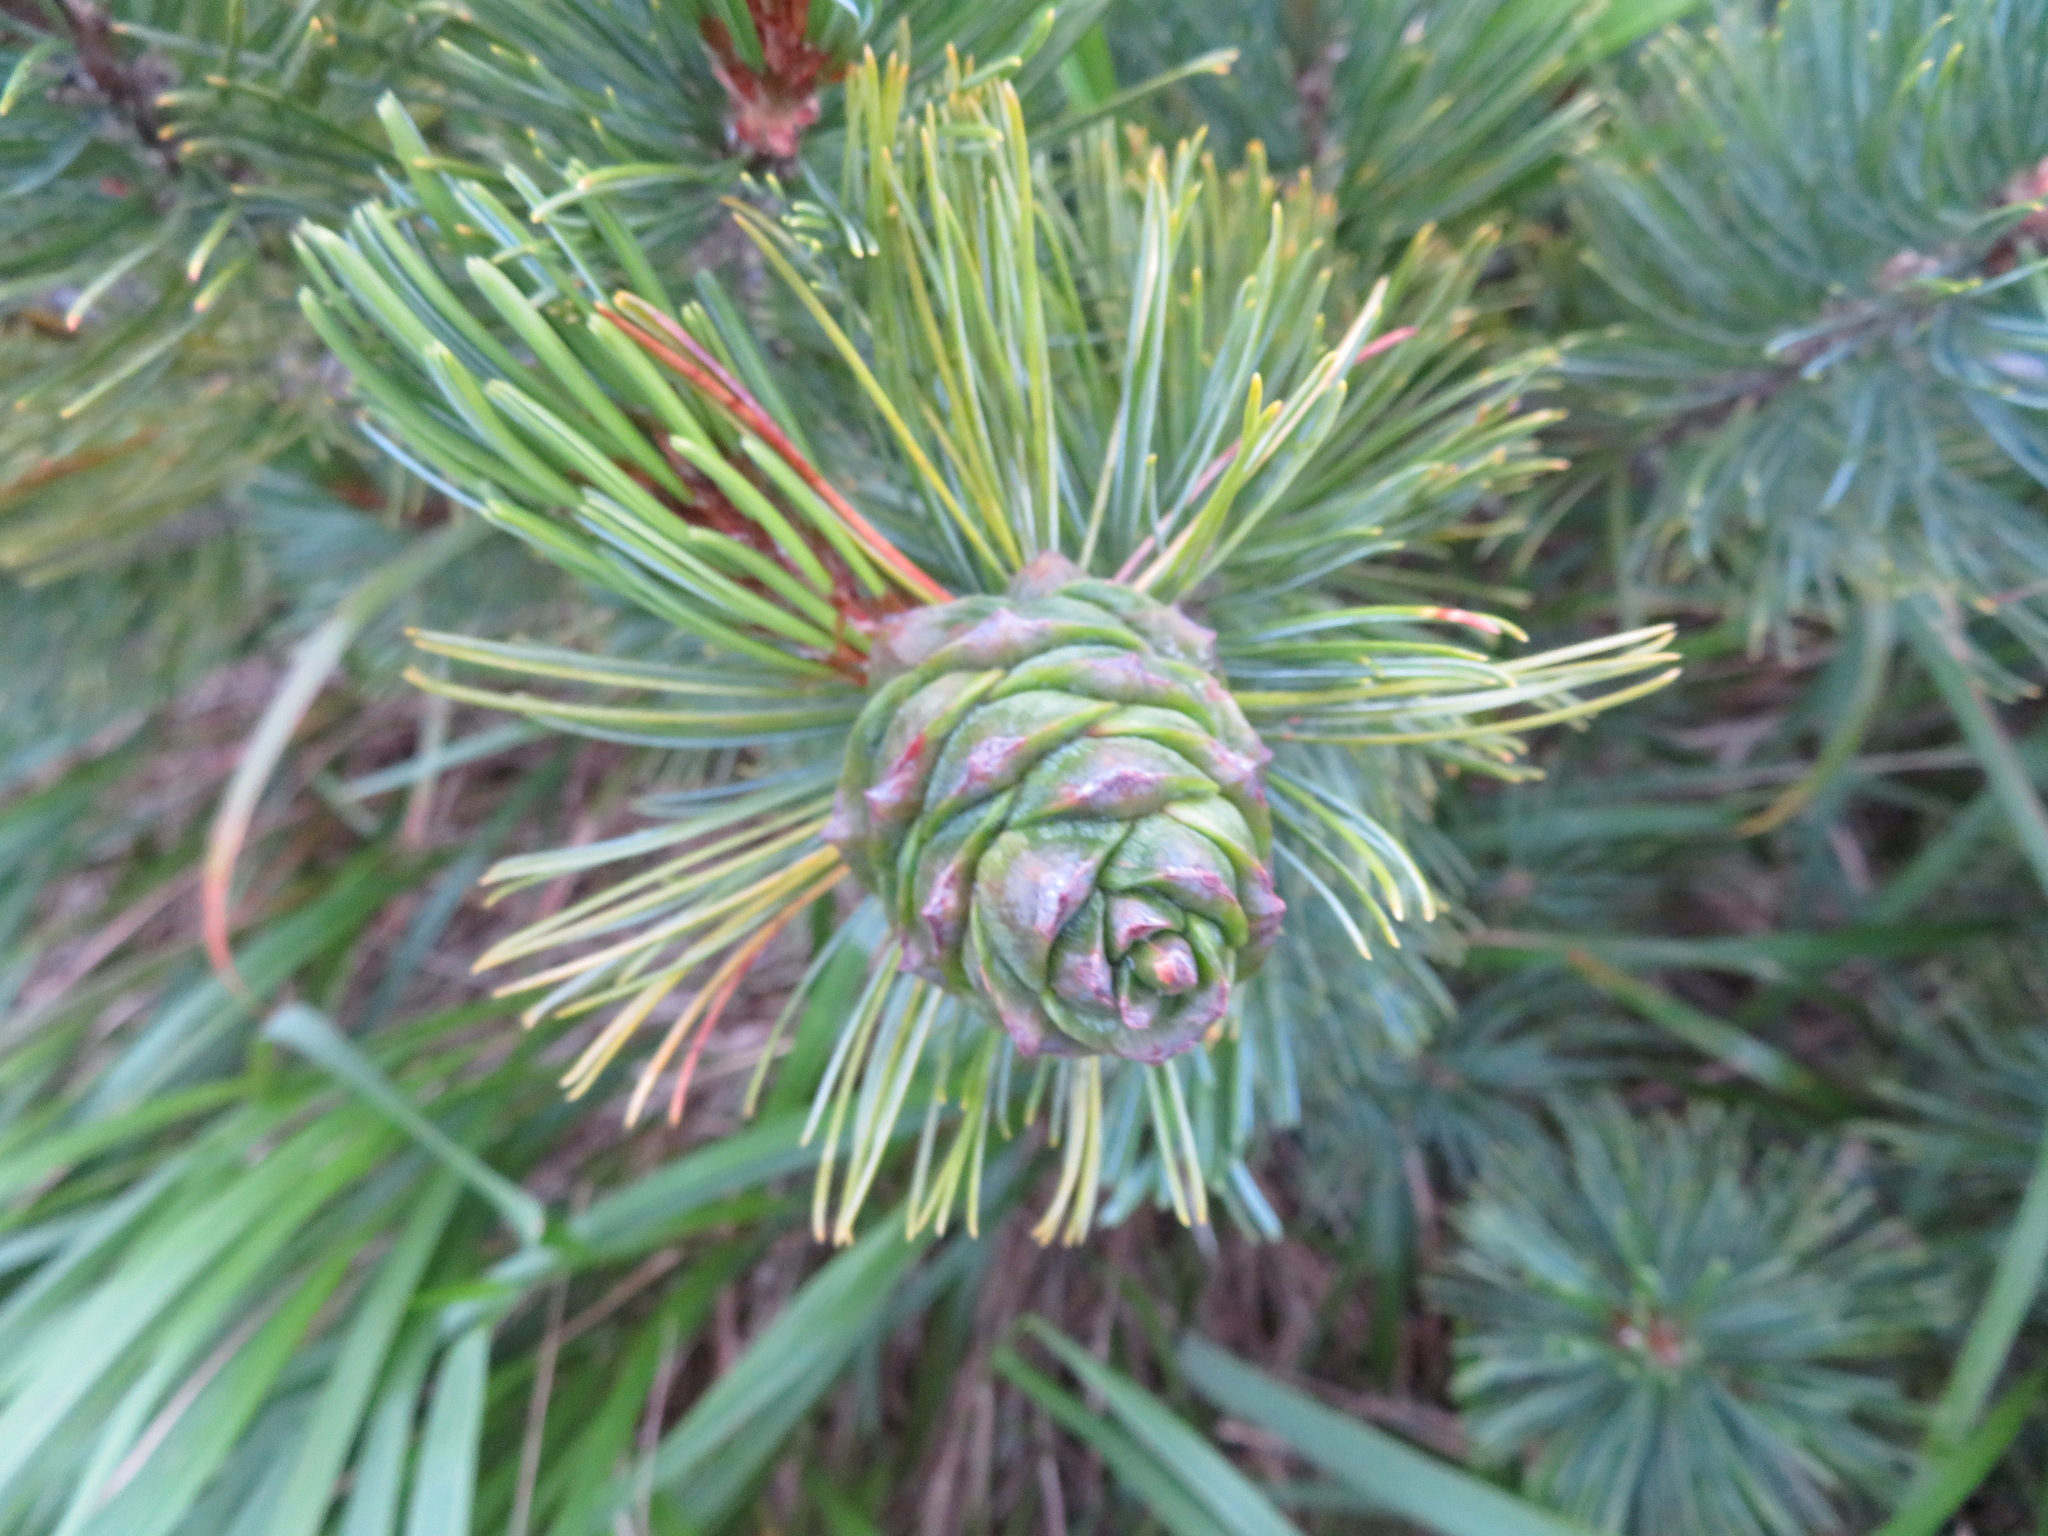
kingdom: Plantae
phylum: Tracheophyta
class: Pinopsida
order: Pinales
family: Pinaceae
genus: Pinus
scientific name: Pinus pumila
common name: Dwarf siberian pine
